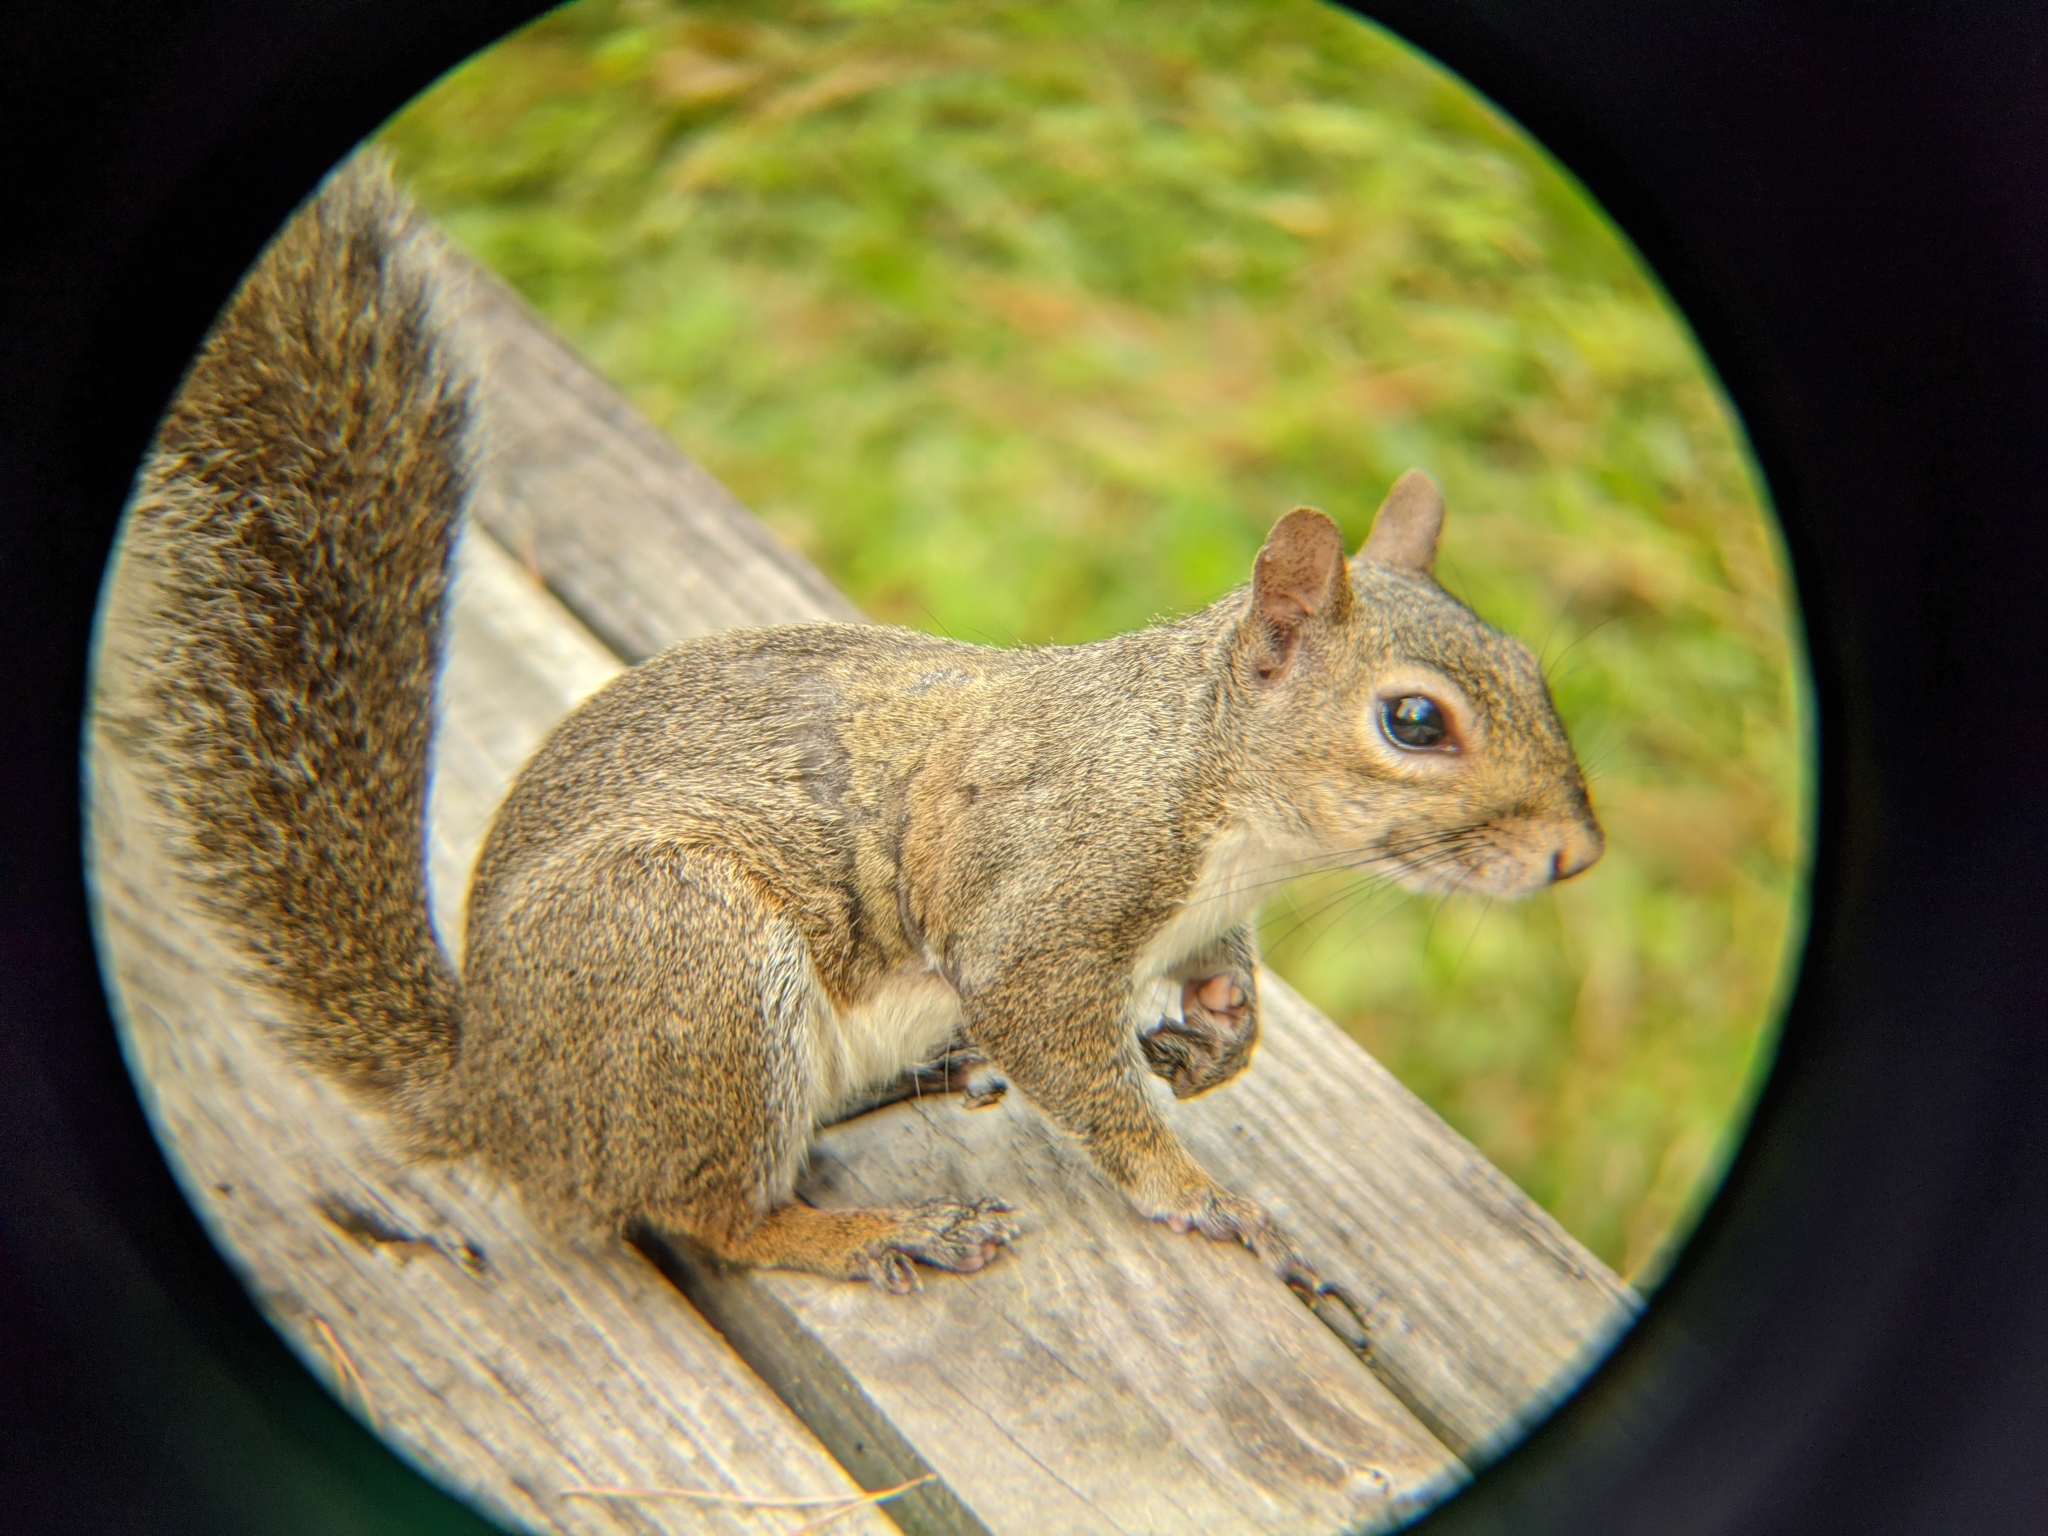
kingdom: Animalia
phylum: Chordata
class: Mammalia
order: Rodentia
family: Sciuridae
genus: Sciurus
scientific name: Sciurus carolinensis
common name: Eastern gray squirrel
